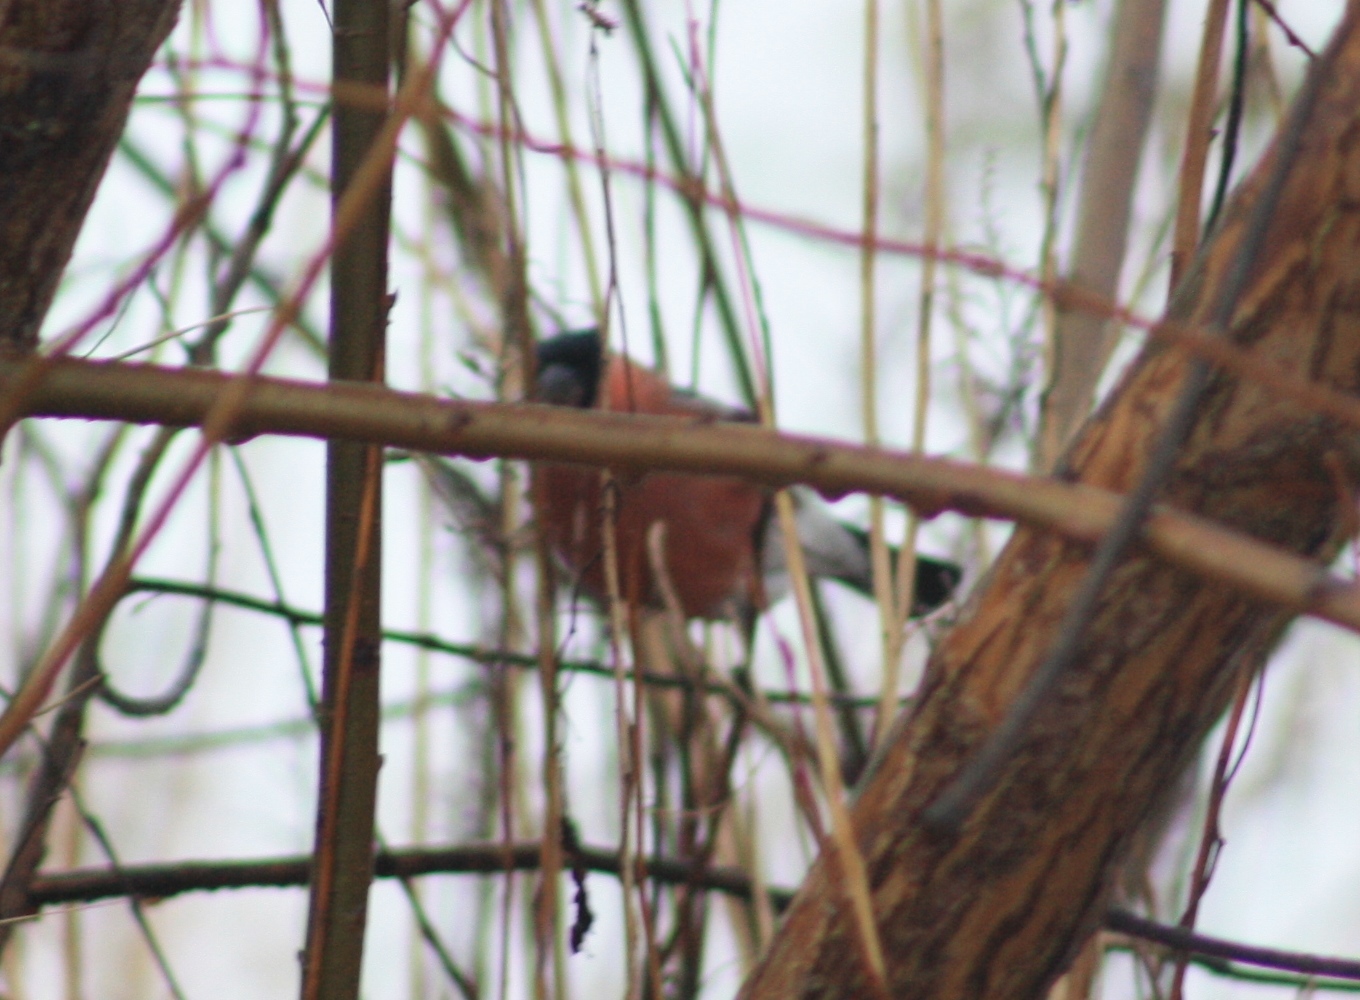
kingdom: Animalia
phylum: Chordata
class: Aves
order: Passeriformes
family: Fringillidae
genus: Pyrrhula
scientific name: Pyrrhula pyrrhula
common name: Eurasian bullfinch
